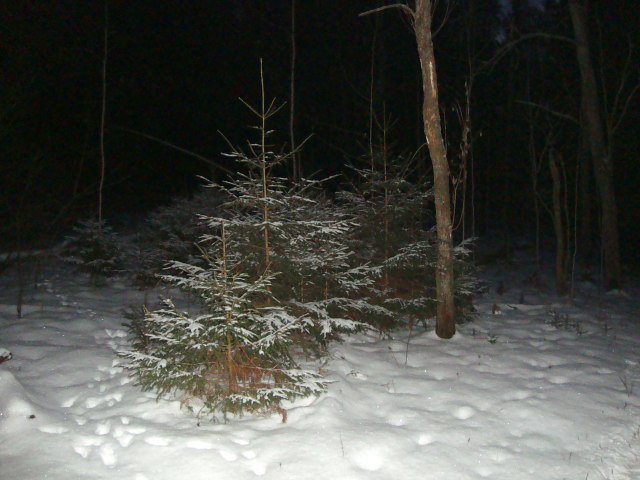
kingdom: Plantae
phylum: Tracheophyta
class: Pinopsida
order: Pinales
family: Pinaceae
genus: Picea
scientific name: Picea abies
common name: Norway spruce
